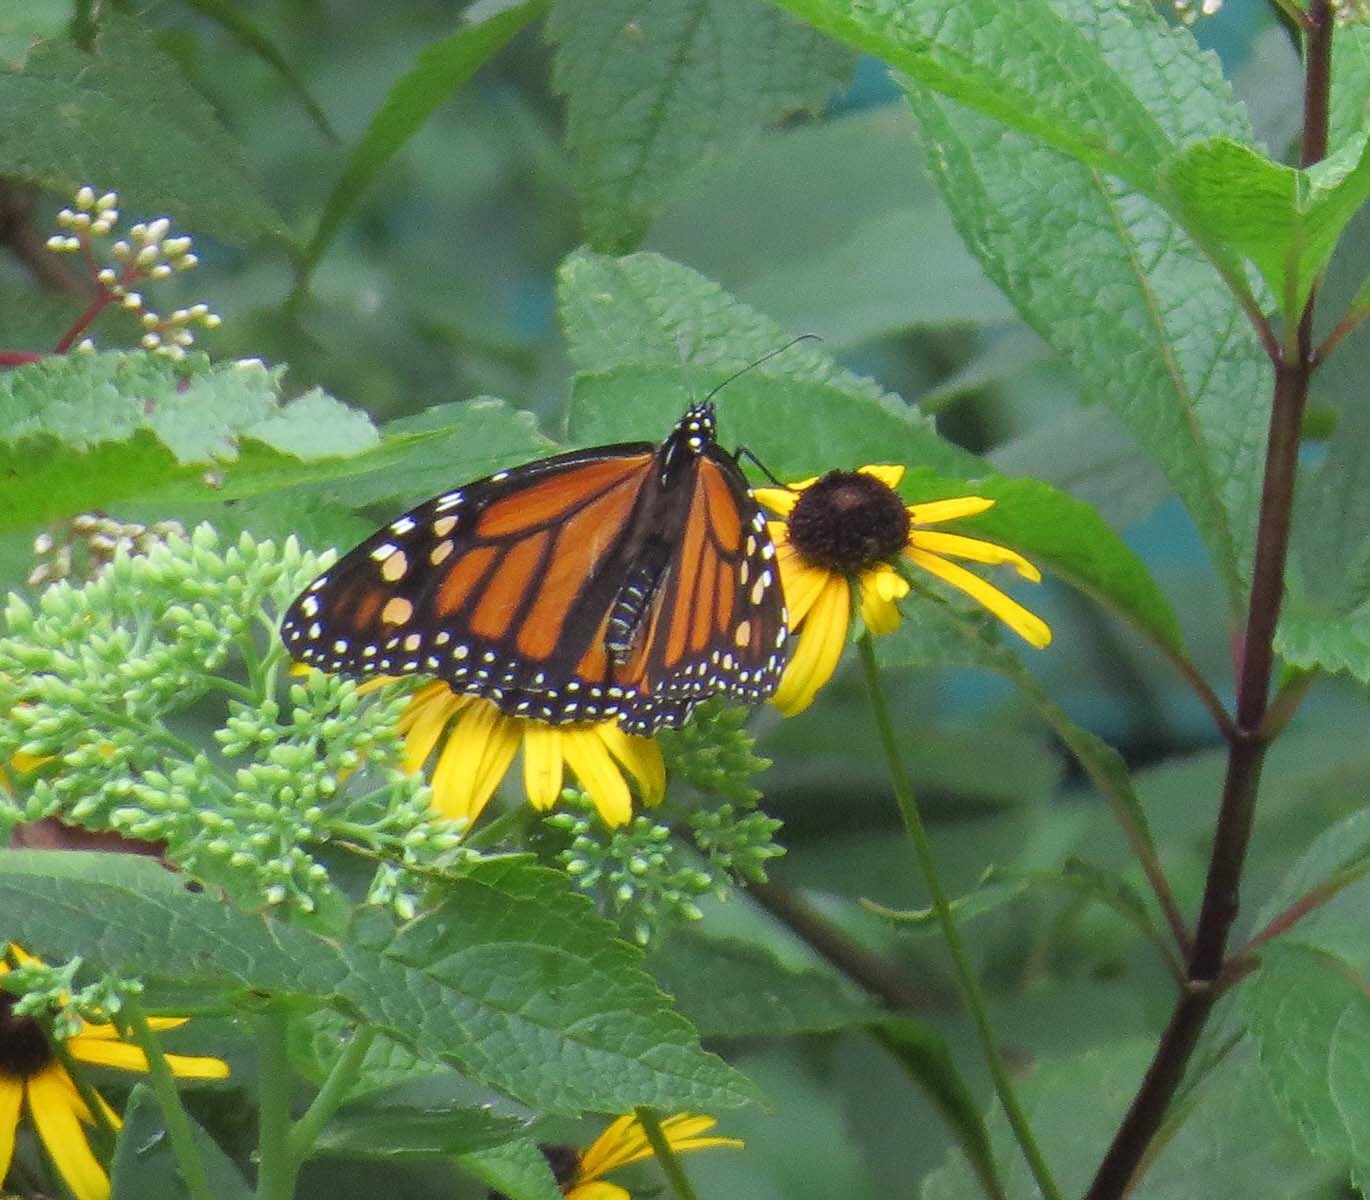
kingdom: Animalia
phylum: Arthropoda
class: Insecta
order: Lepidoptera
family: Nymphalidae
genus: Danaus
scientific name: Danaus plexippus
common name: Monarch
